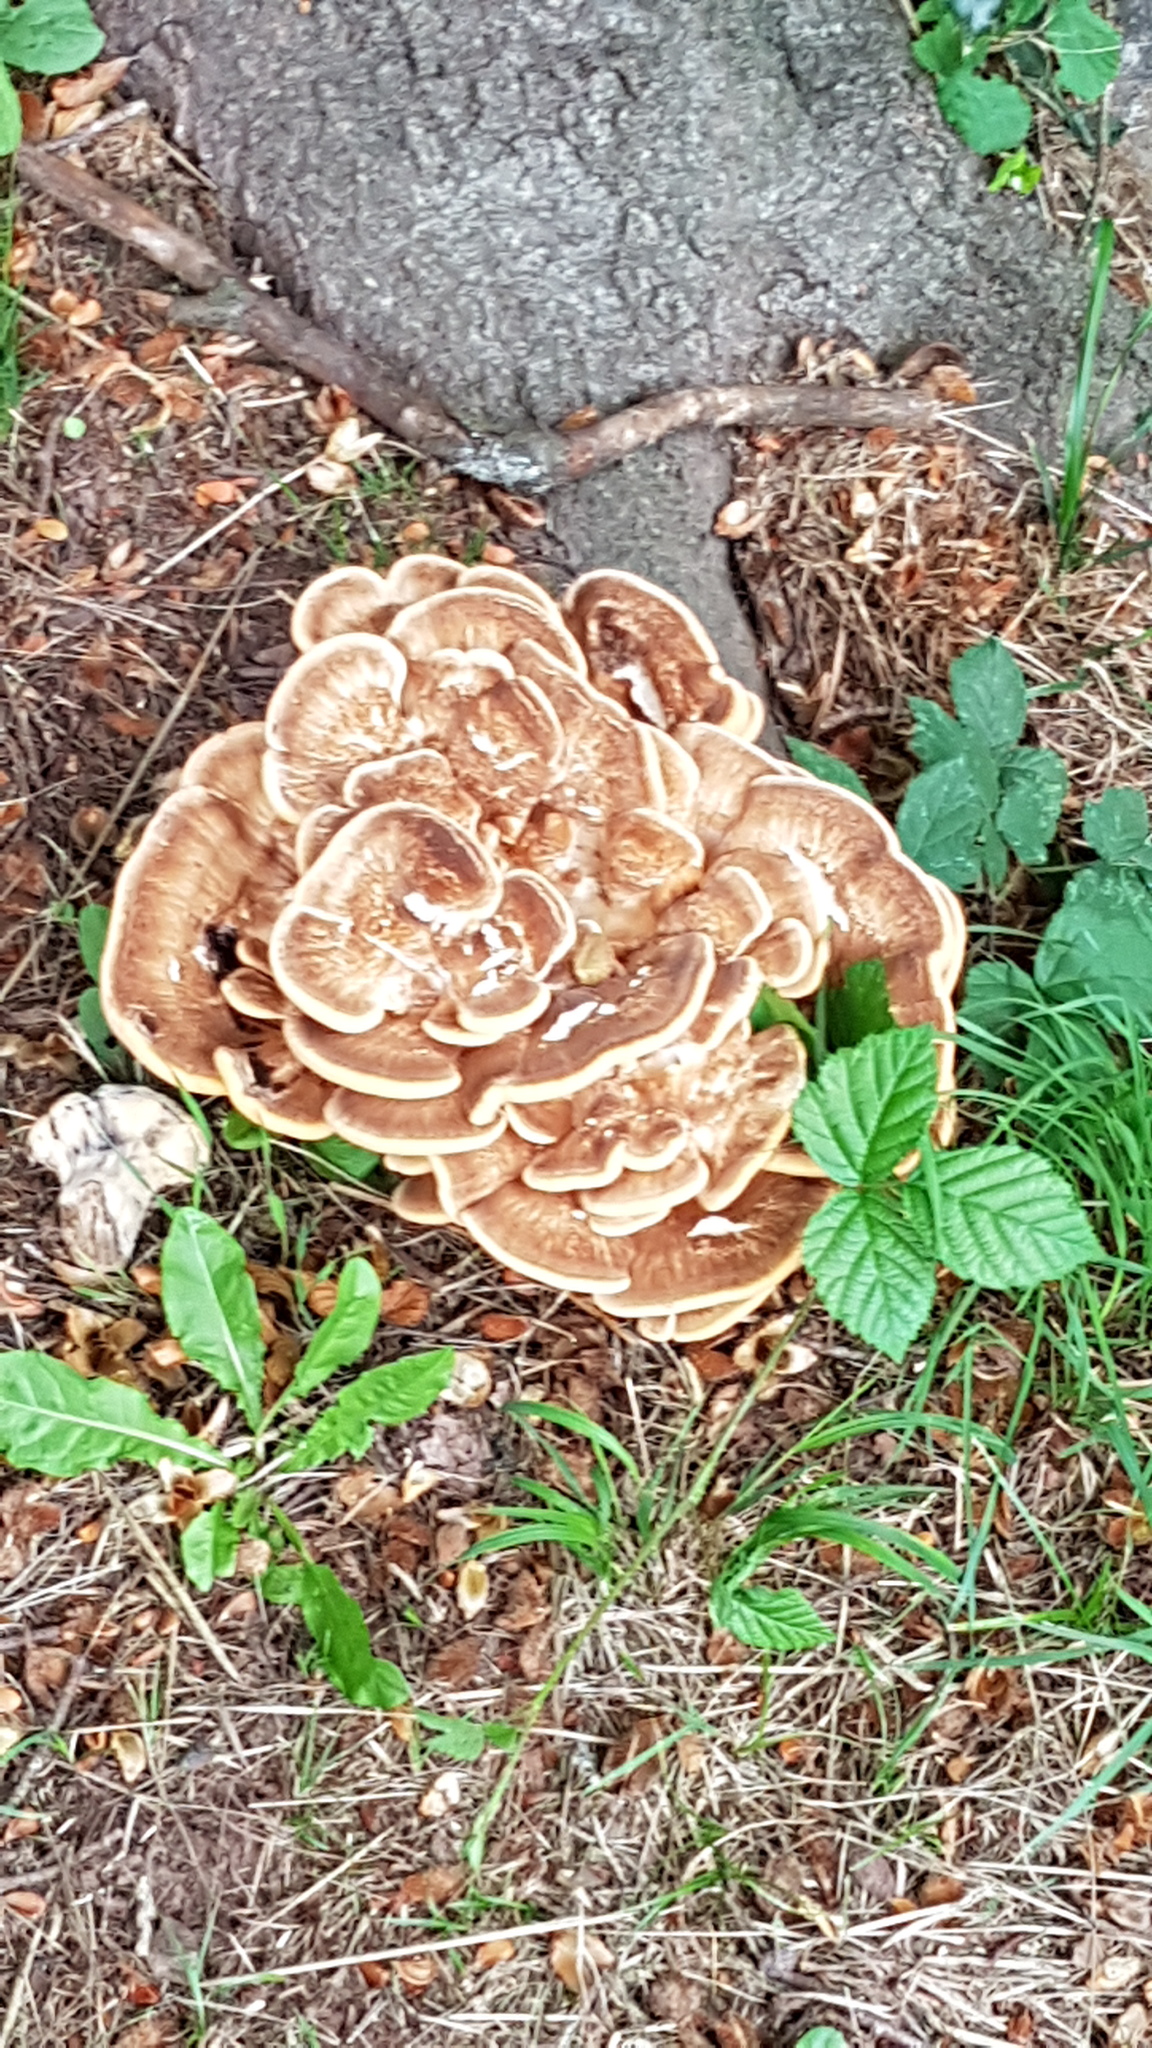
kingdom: Fungi
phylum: Basidiomycota
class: Agaricomycetes
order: Polyporales
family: Meripilaceae
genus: Meripilus
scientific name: Meripilus giganteus
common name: Giant polypore
